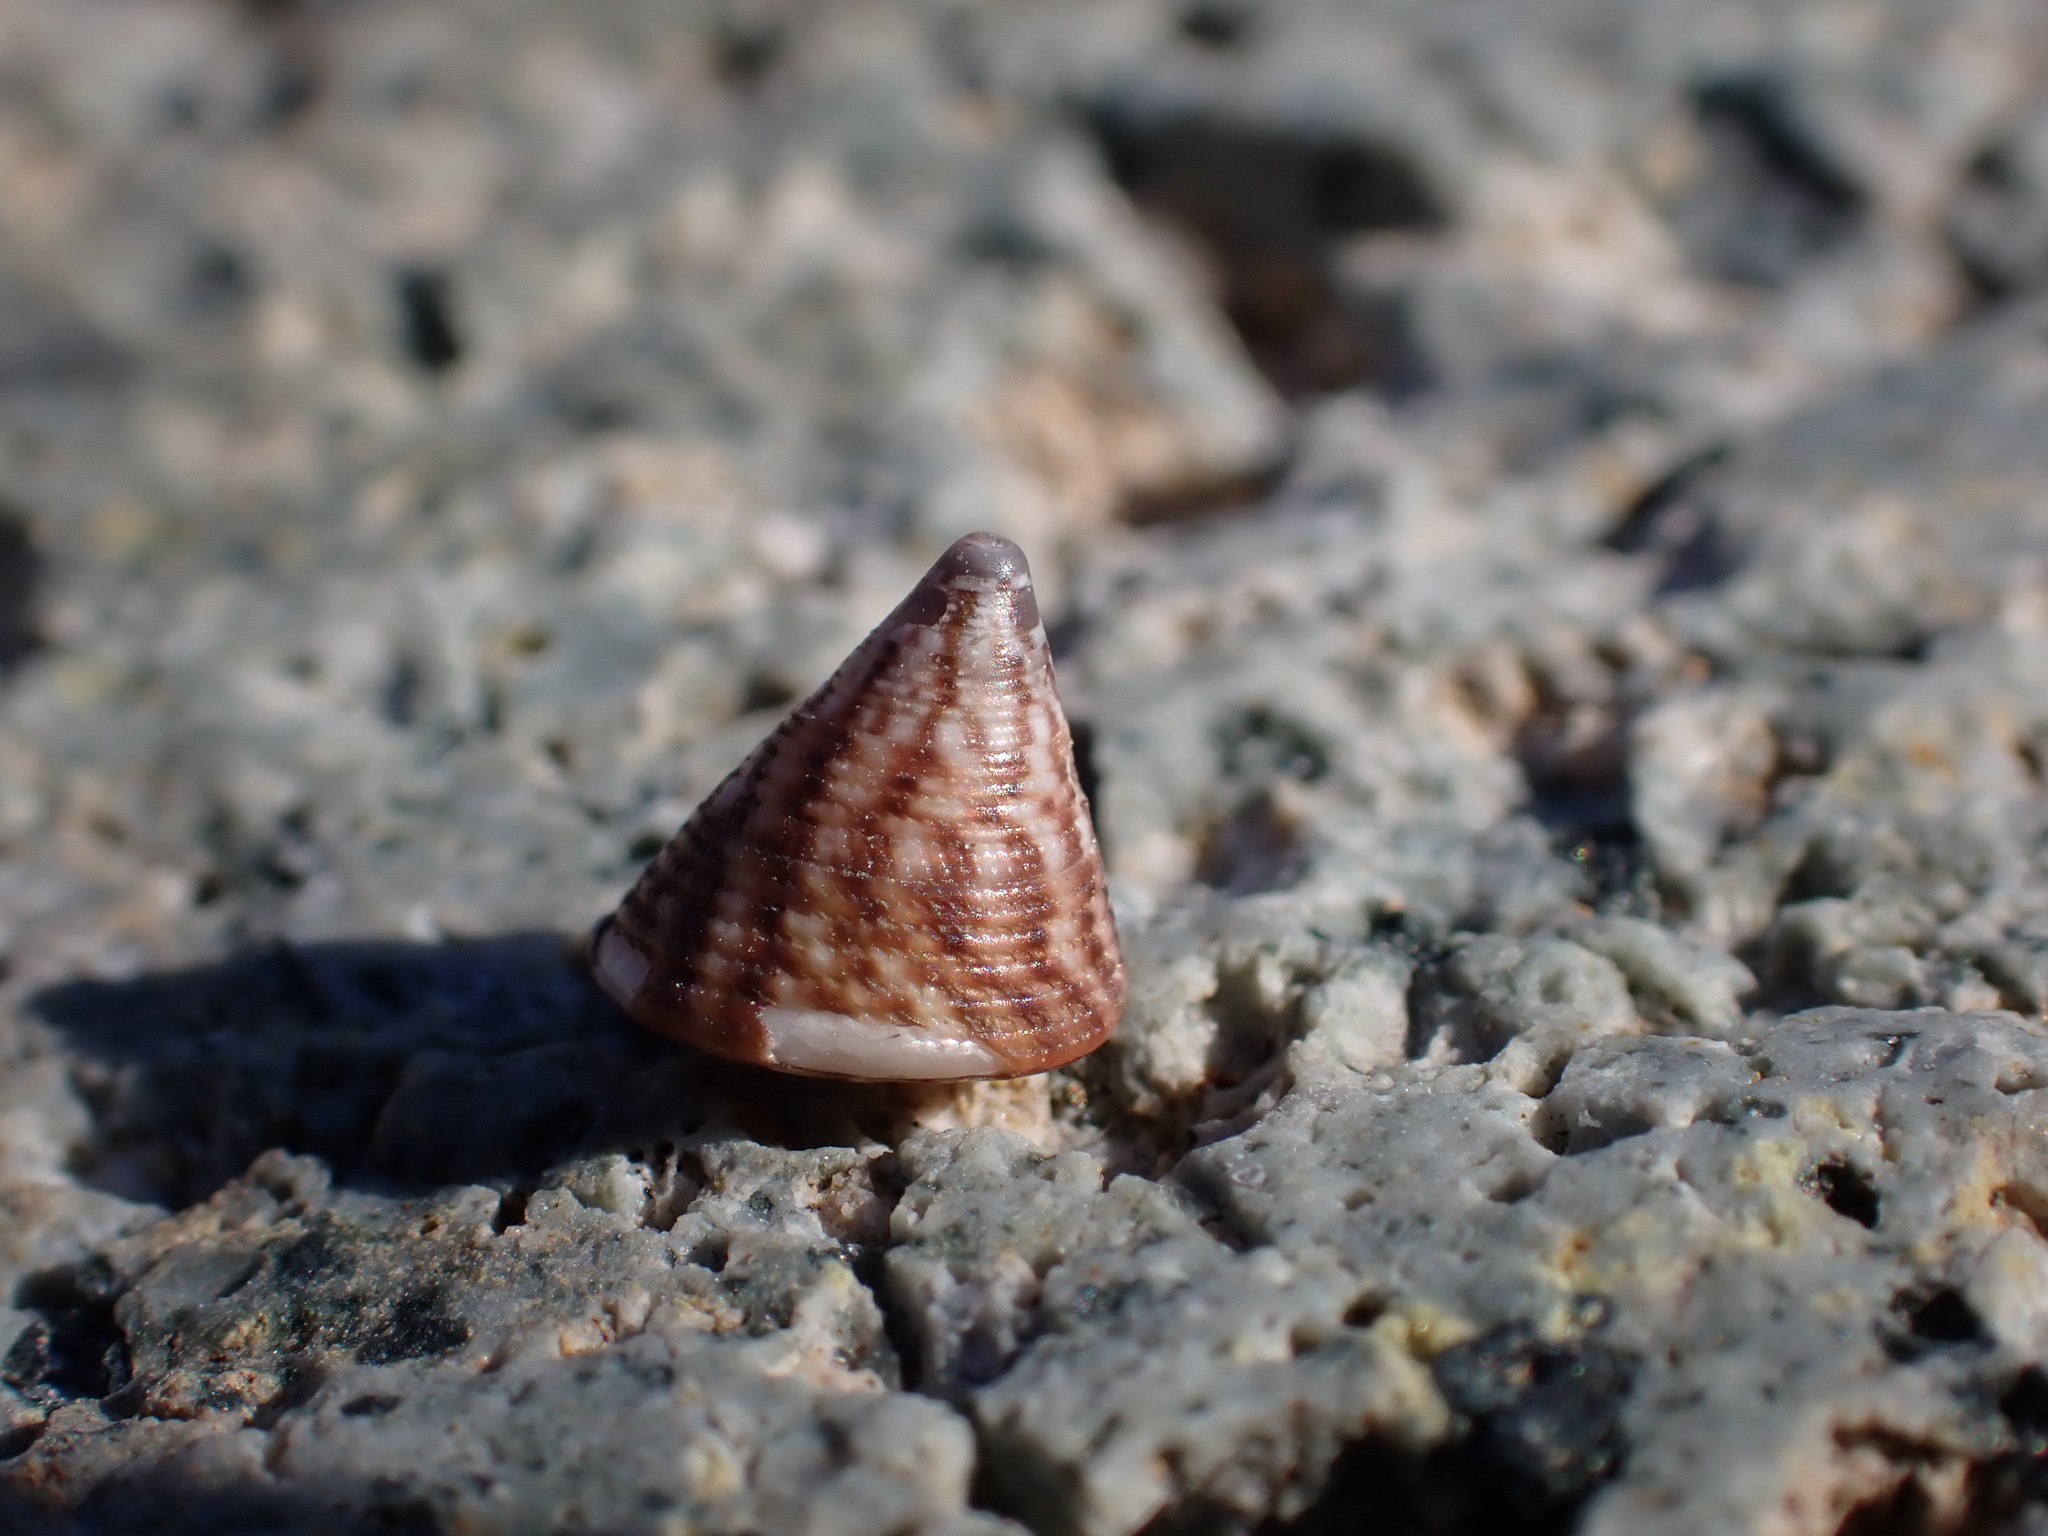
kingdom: Animalia
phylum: Mollusca
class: Gastropoda
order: Trochida
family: Trochidae
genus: Jujubinus
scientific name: Jujubinus exasperatus
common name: Rough top shell
